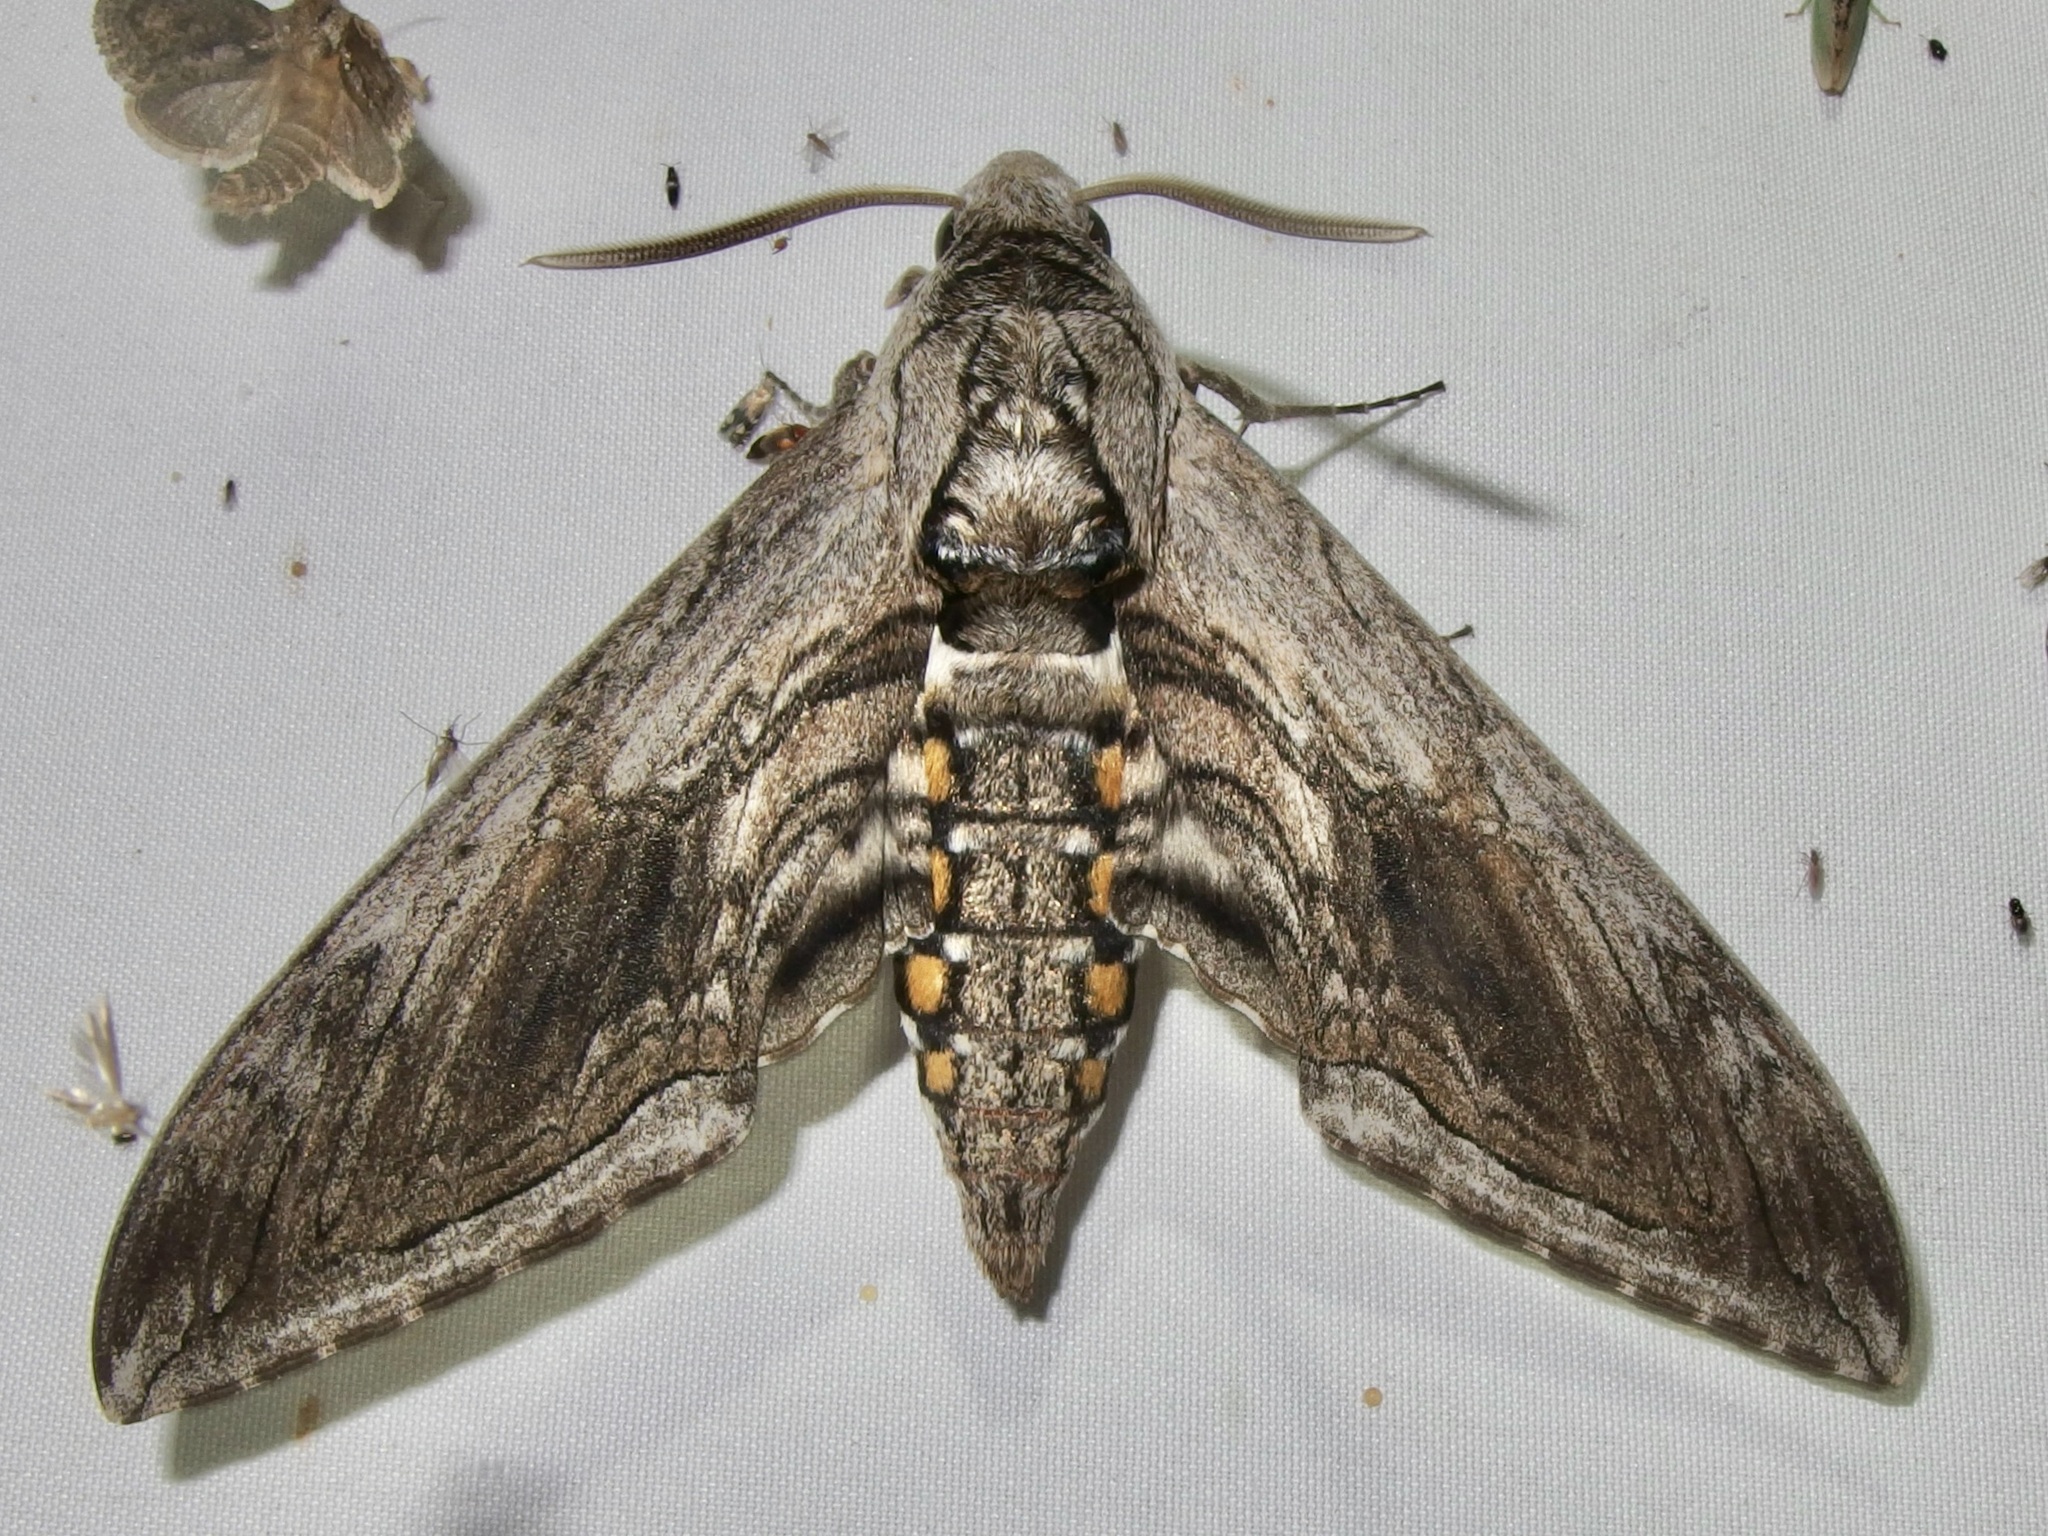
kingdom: Animalia
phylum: Arthropoda
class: Insecta
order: Lepidoptera
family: Sphingidae
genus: Manduca
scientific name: Manduca quinquemaculatus
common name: Five-spotted hawk-moth
